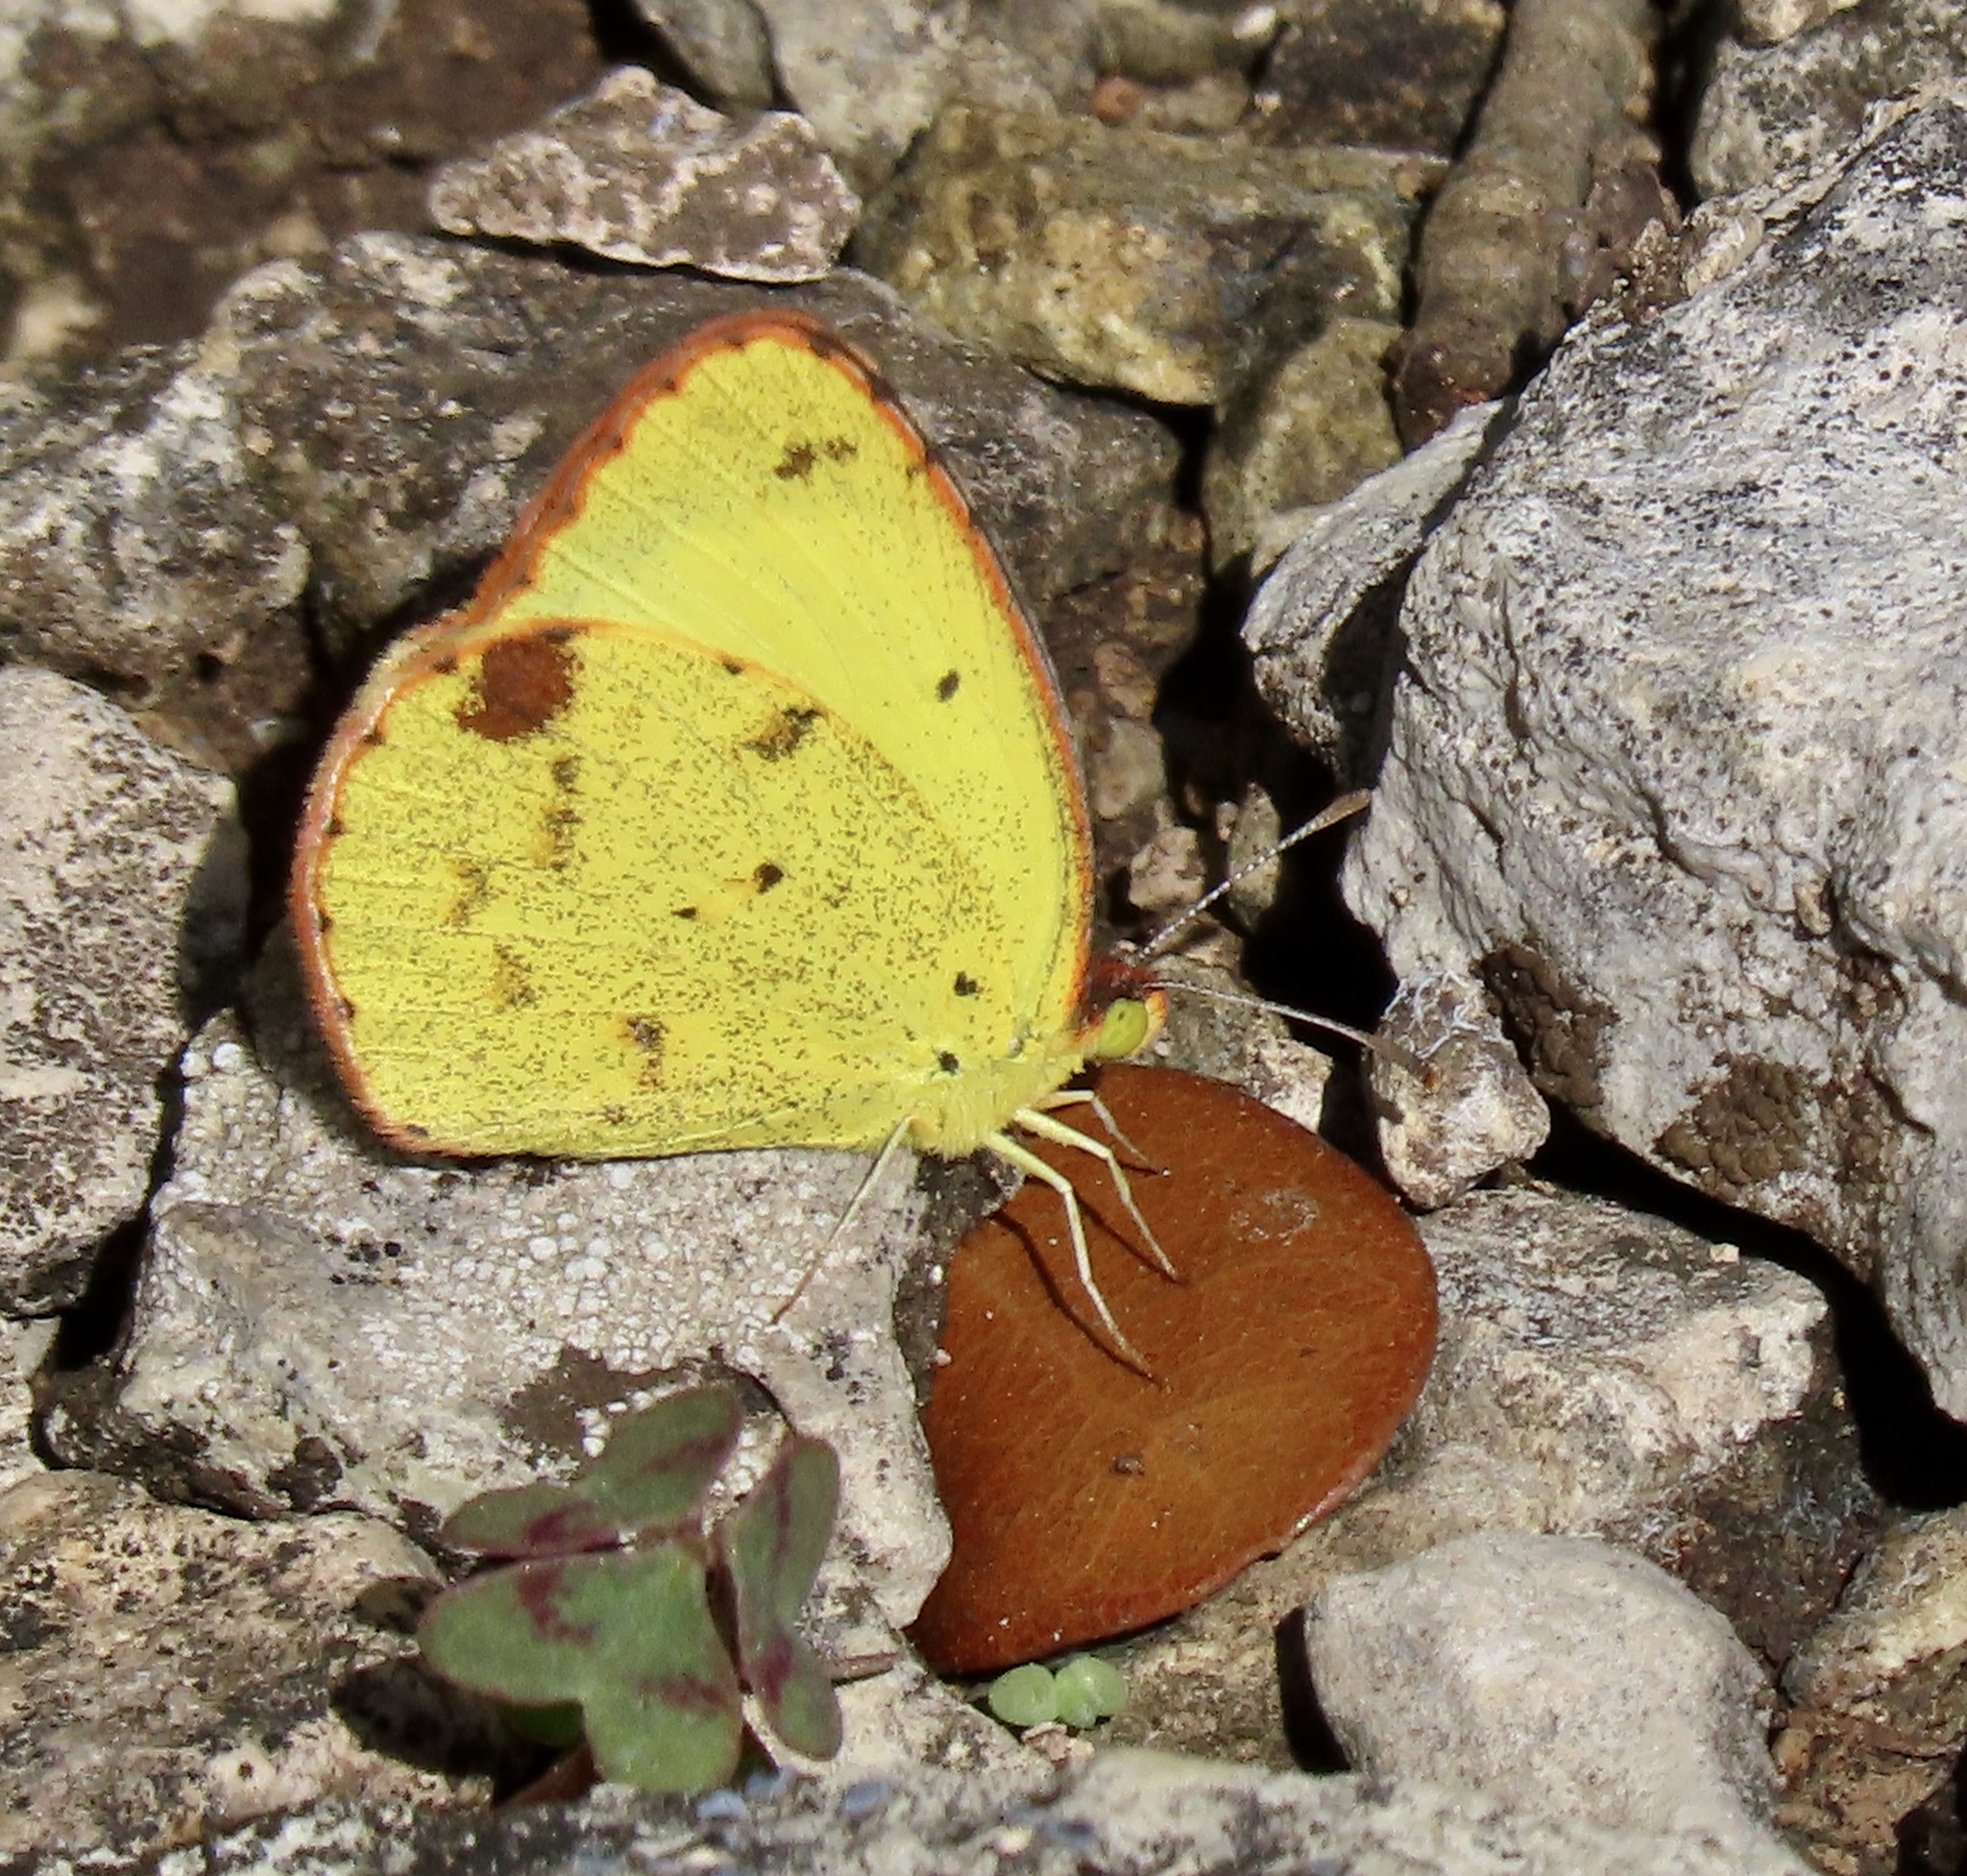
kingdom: Animalia
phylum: Arthropoda
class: Insecta
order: Lepidoptera
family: Pieridae
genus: Pyrisitia
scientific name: Pyrisitia lisa
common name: Little yellow
